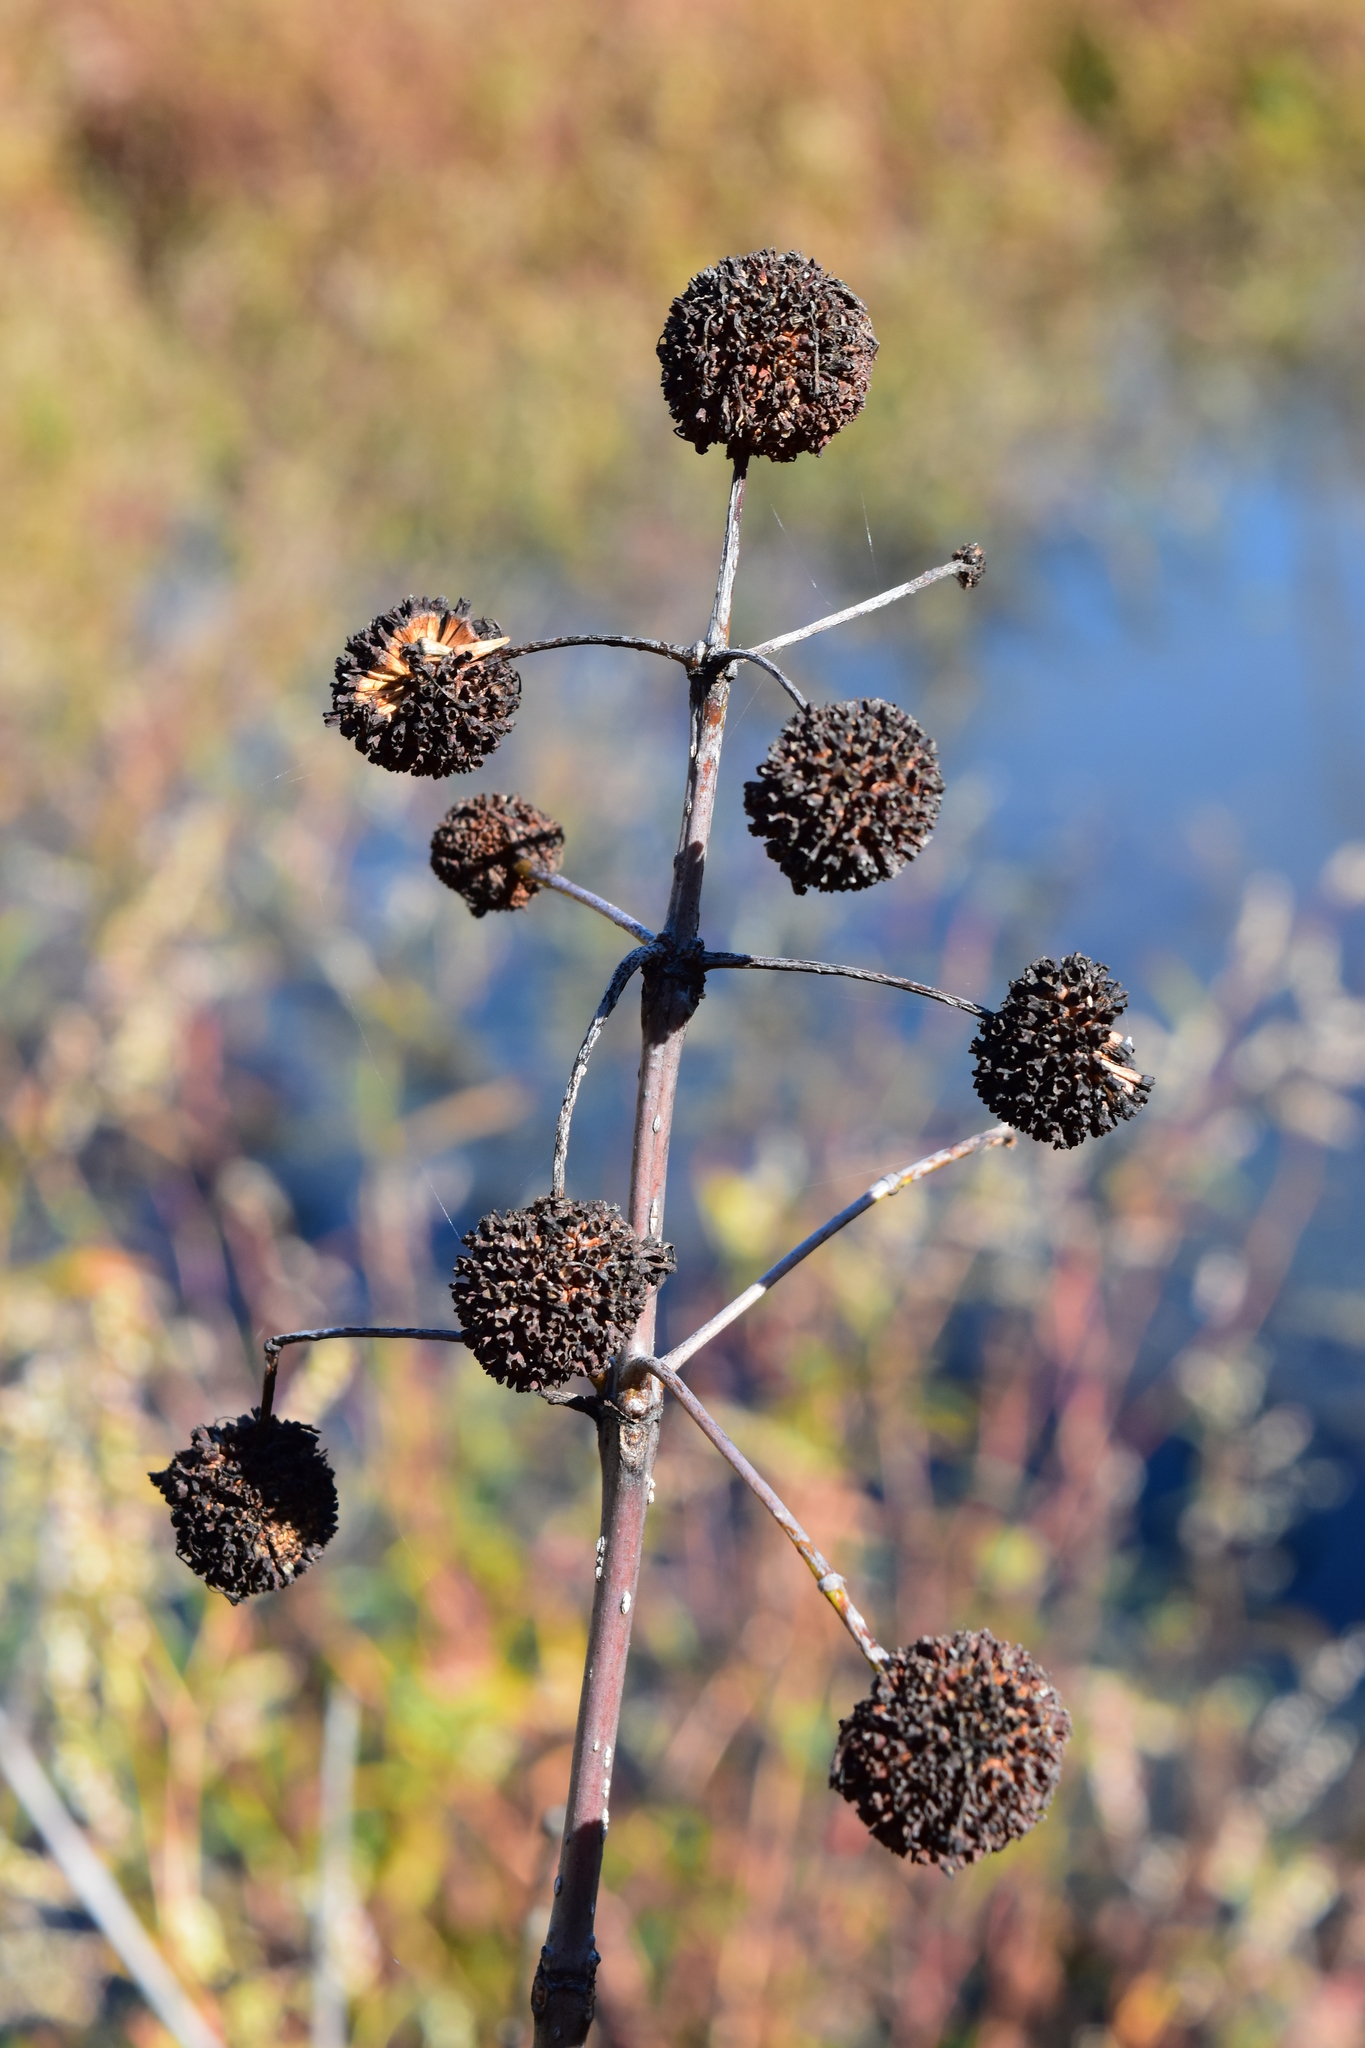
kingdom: Plantae
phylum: Tracheophyta
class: Magnoliopsida
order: Gentianales
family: Rubiaceae
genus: Cephalanthus
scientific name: Cephalanthus occidentalis
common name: Button-willow
